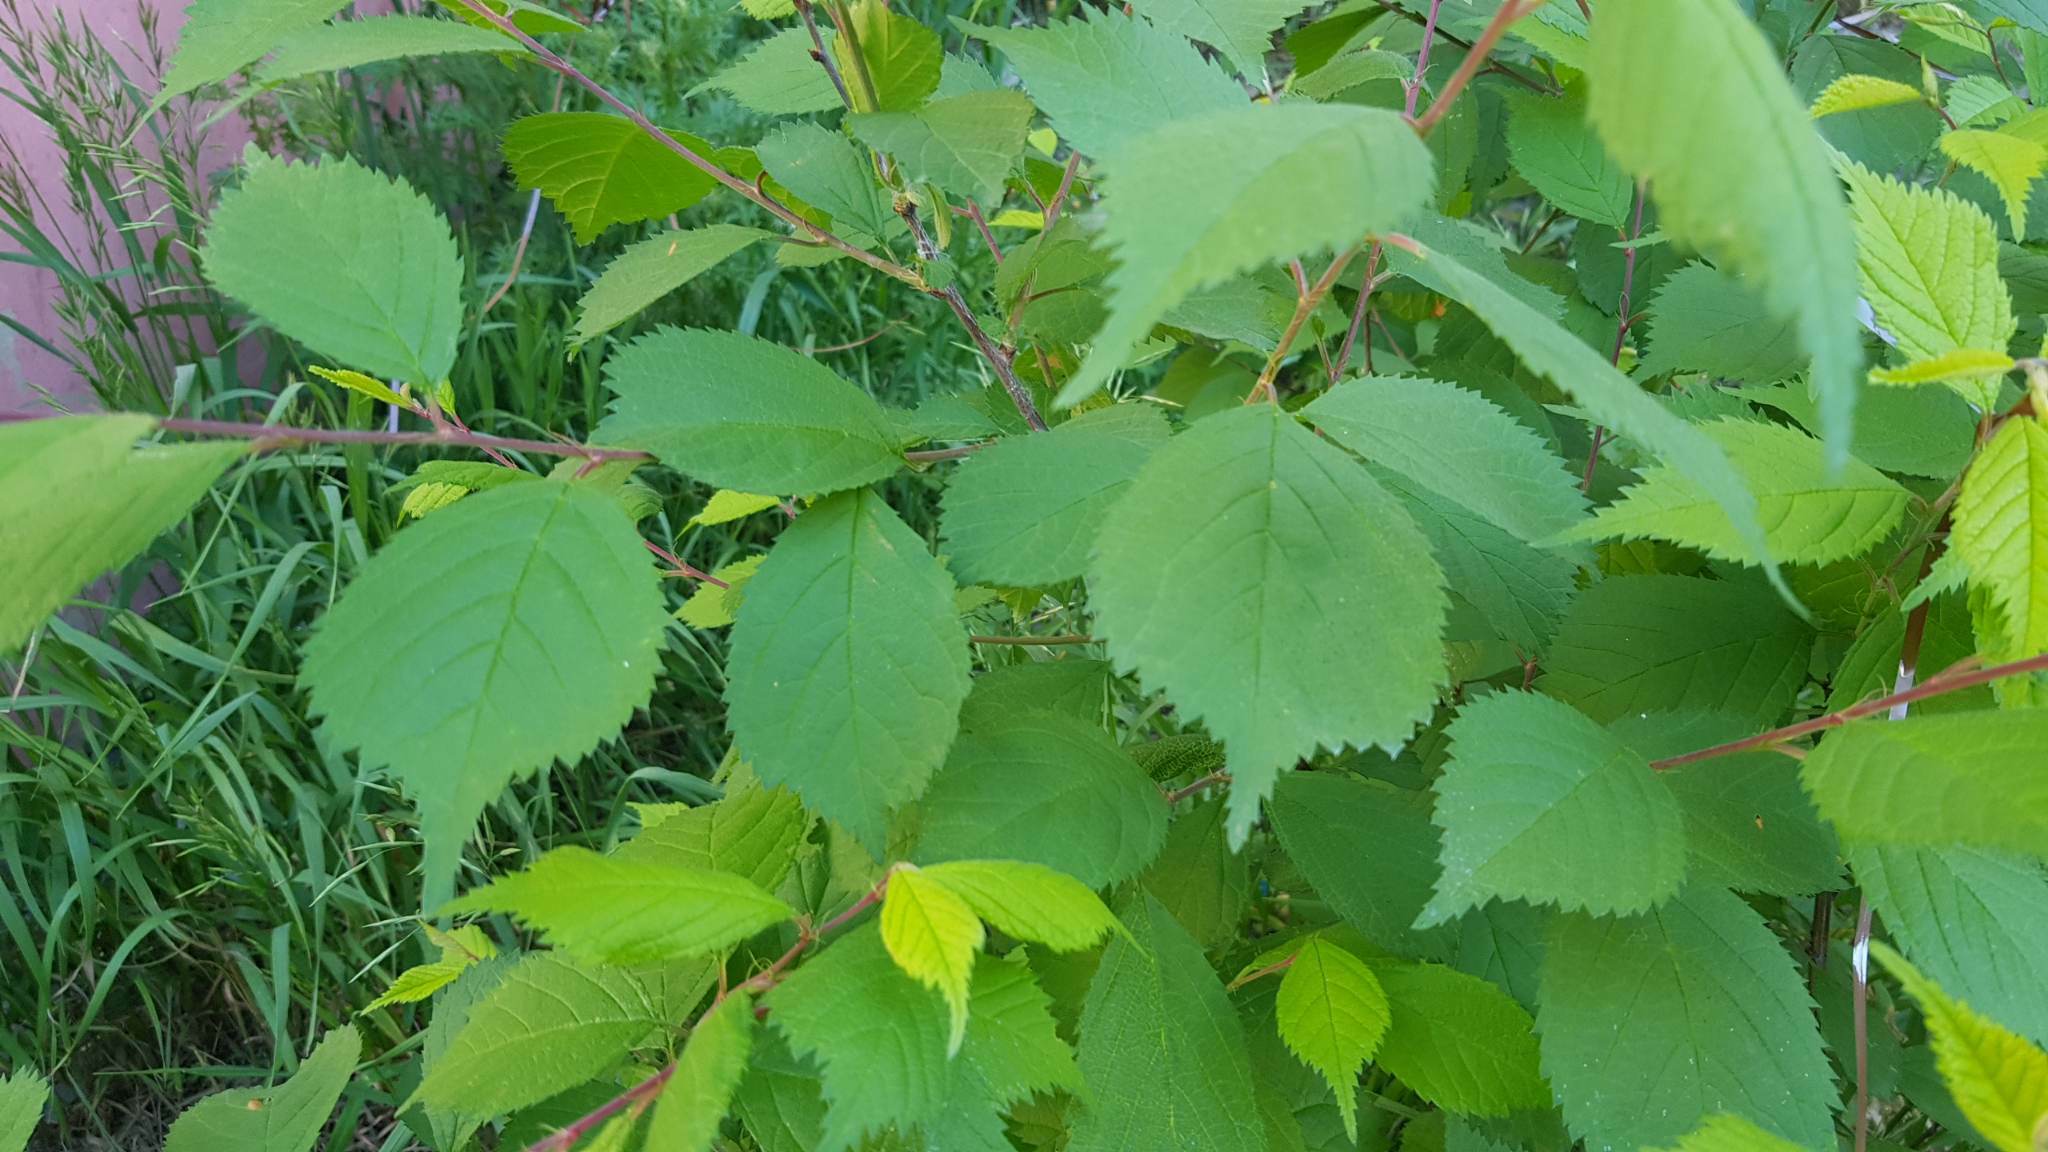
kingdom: Plantae
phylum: Tracheophyta
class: Magnoliopsida
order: Rosales
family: Rosaceae
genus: Prunus
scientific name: Prunus avium
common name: Sweet cherry
